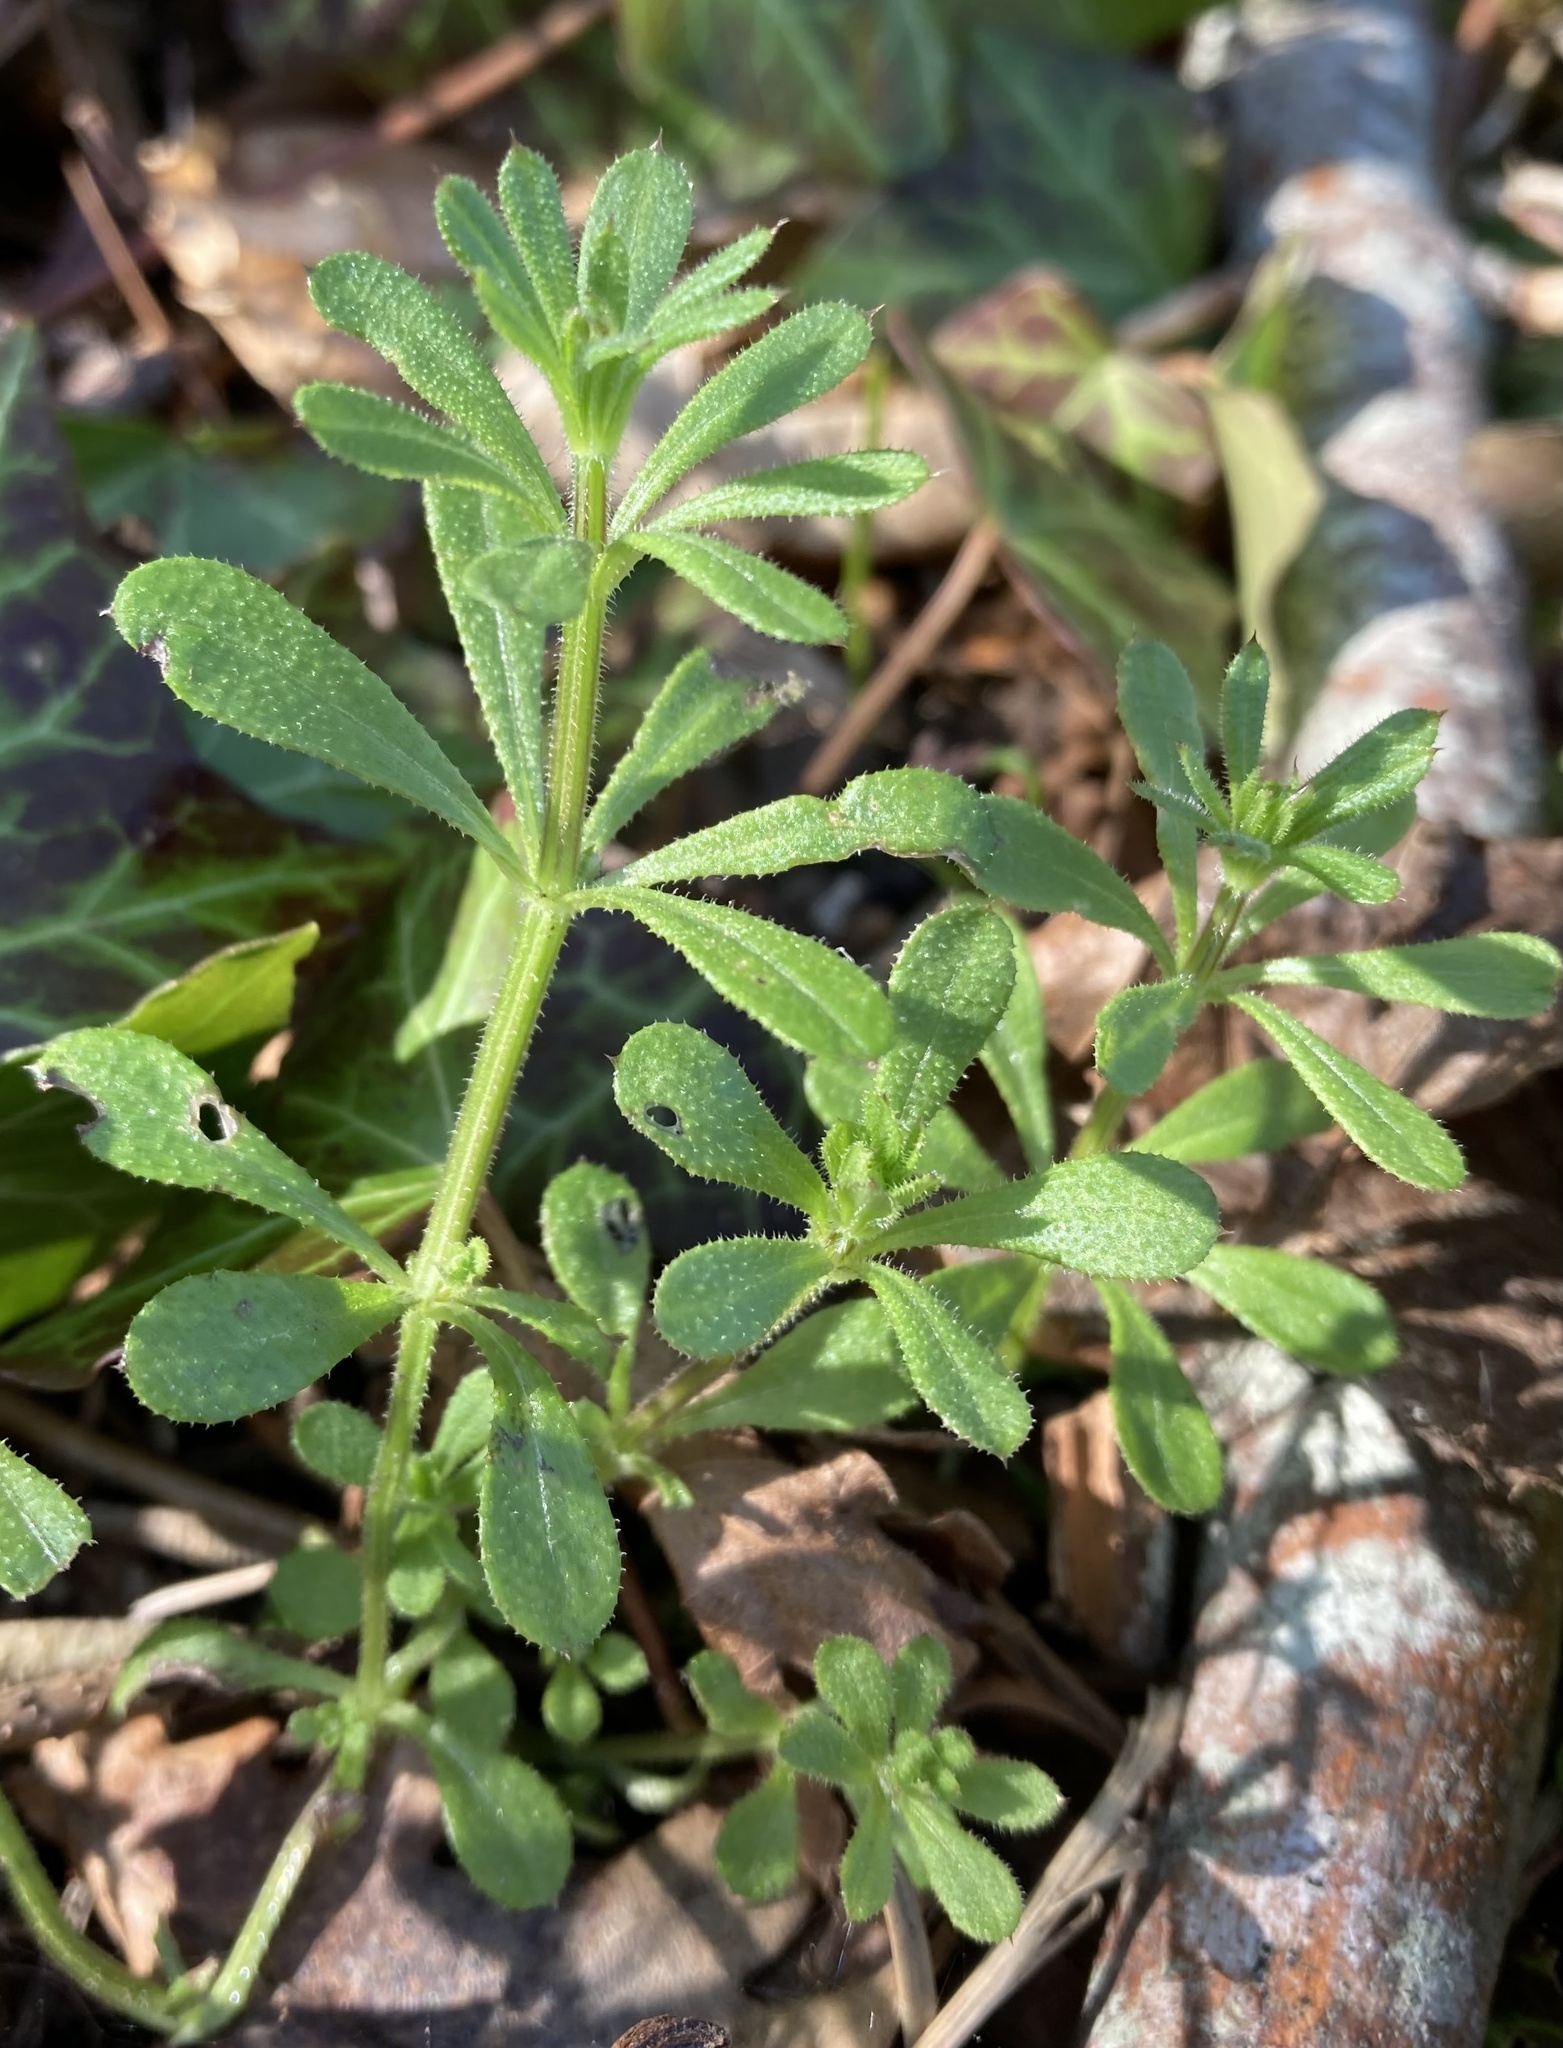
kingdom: Plantae
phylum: Tracheophyta
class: Magnoliopsida
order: Gentianales
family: Rubiaceae
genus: Galium
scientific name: Galium aparine
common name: Cleavers
